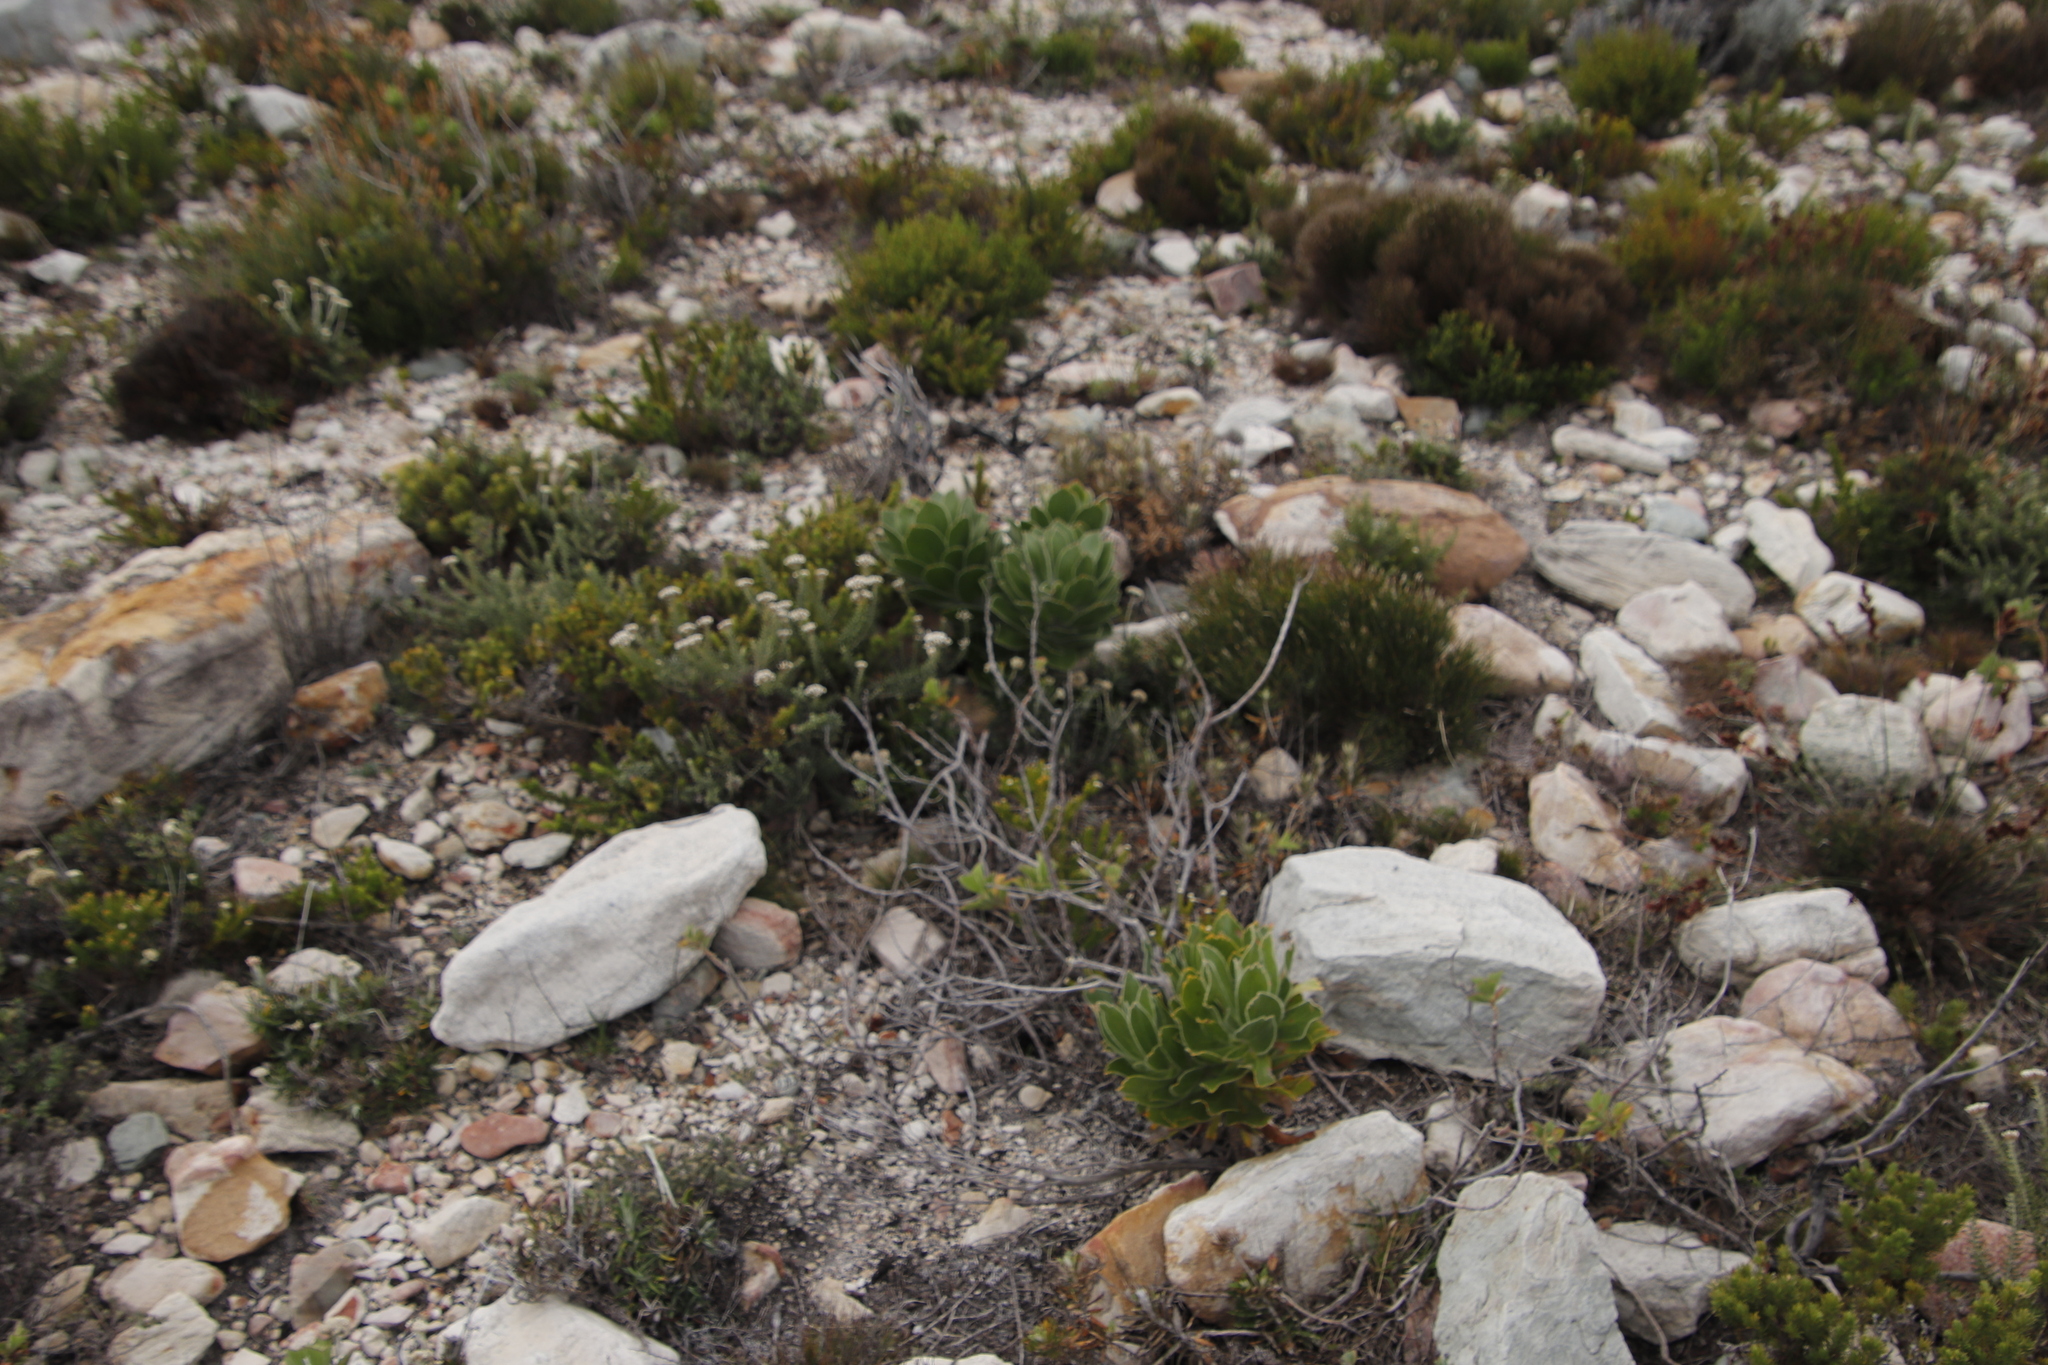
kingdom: Plantae
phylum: Tracheophyta
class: Magnoliopsida
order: Proteales
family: Proteaceae
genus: Leucospermum
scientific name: Leucospermum conocarpodendron
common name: Tree pincushion
